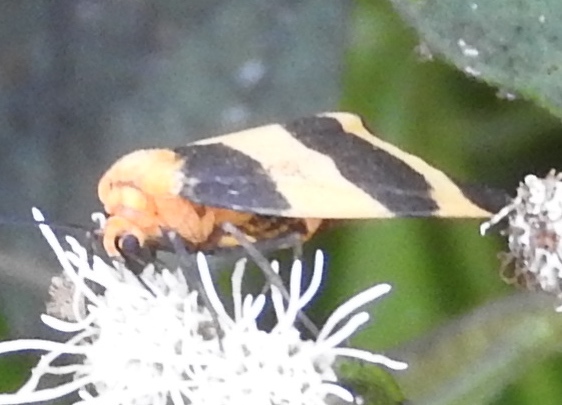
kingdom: Animalia
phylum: Arthropoda
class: Insecta
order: Lepidoptera
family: Erebidae
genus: Eudesmia
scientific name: Eudesmia menea
